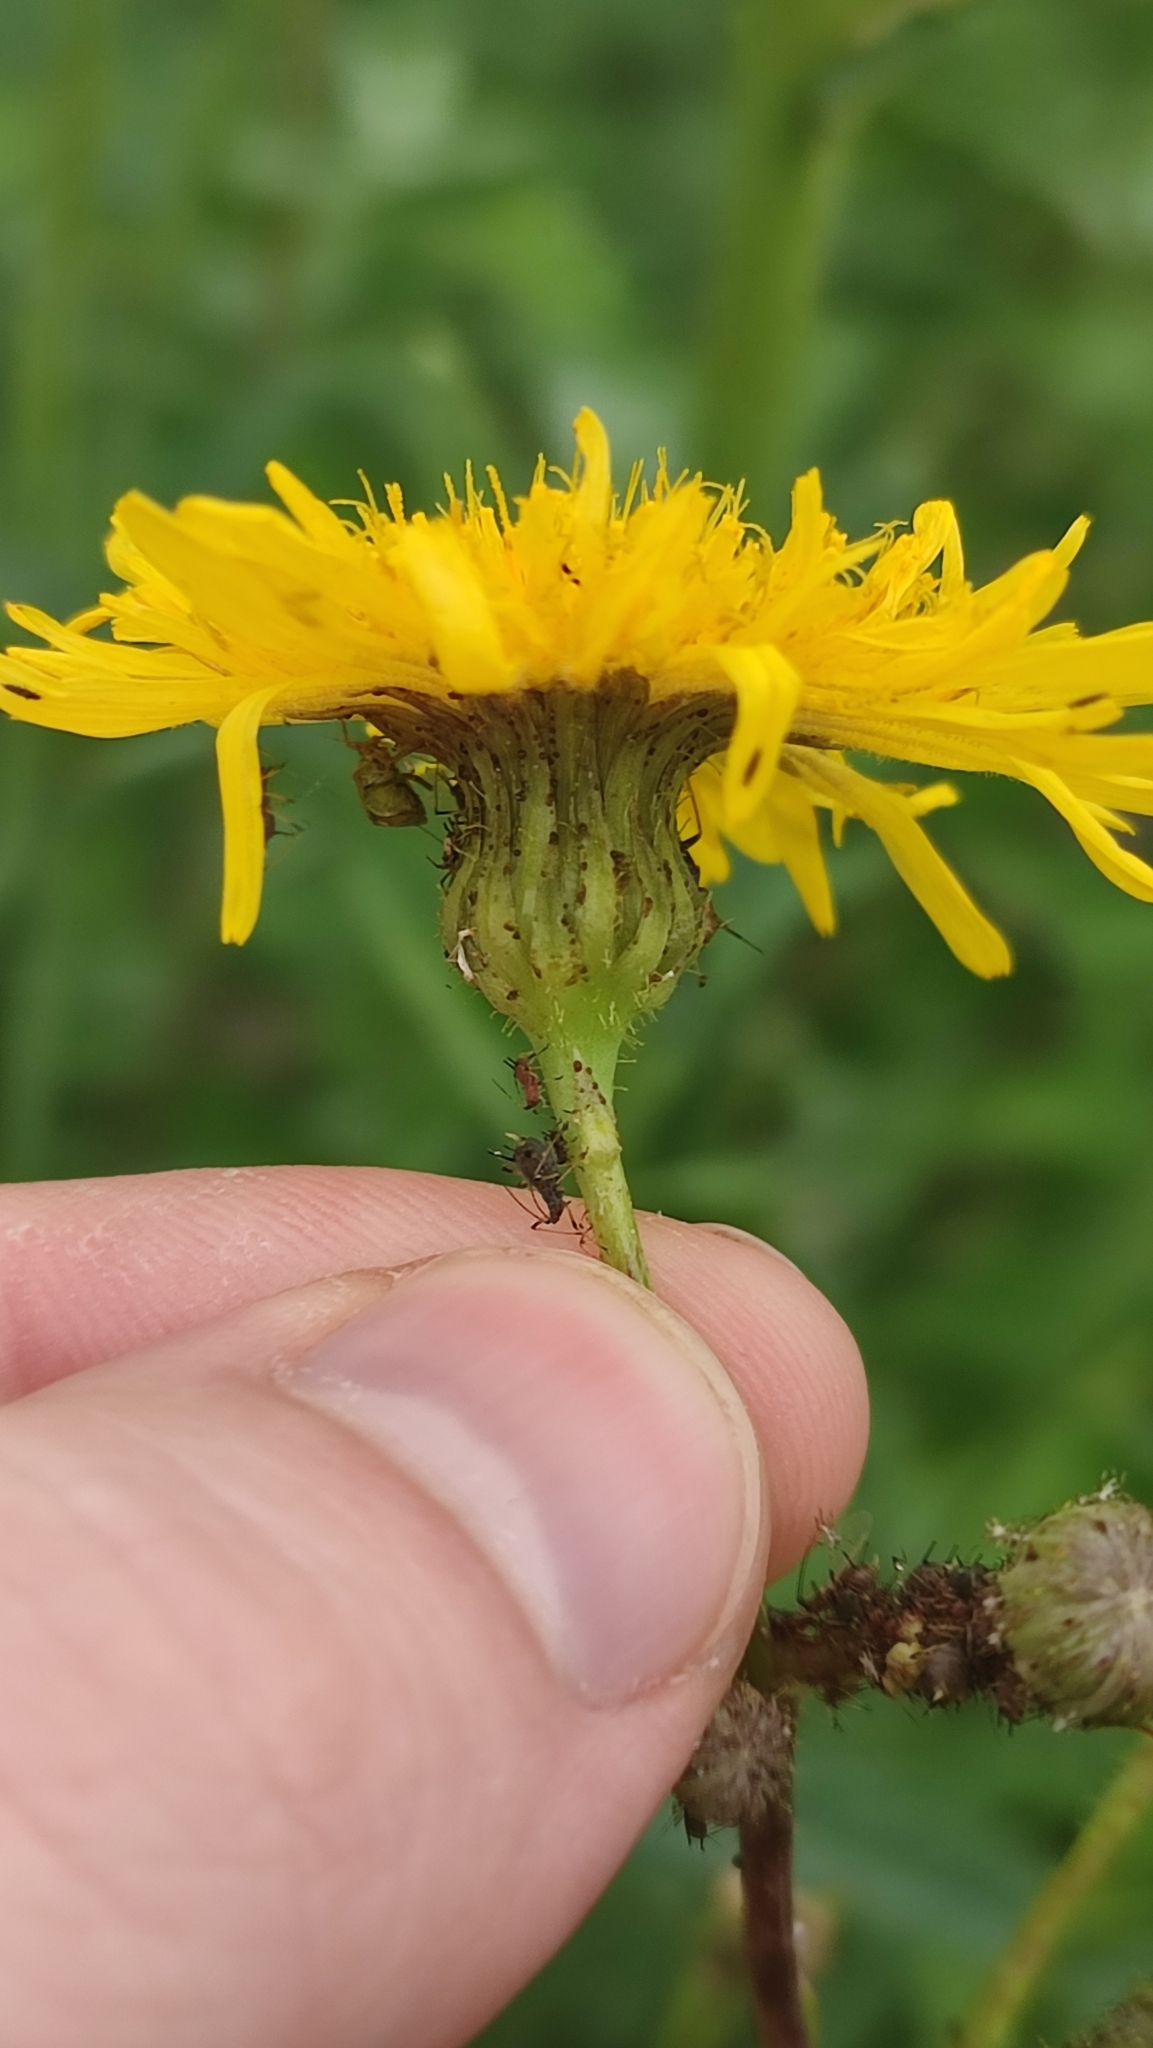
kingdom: Plantae
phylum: Tracheophyta
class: Magnoliopsida
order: Asterales
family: Asteraceae
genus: Sonchus
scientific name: Sonchus arvensis
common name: Perennial sow-thistle
